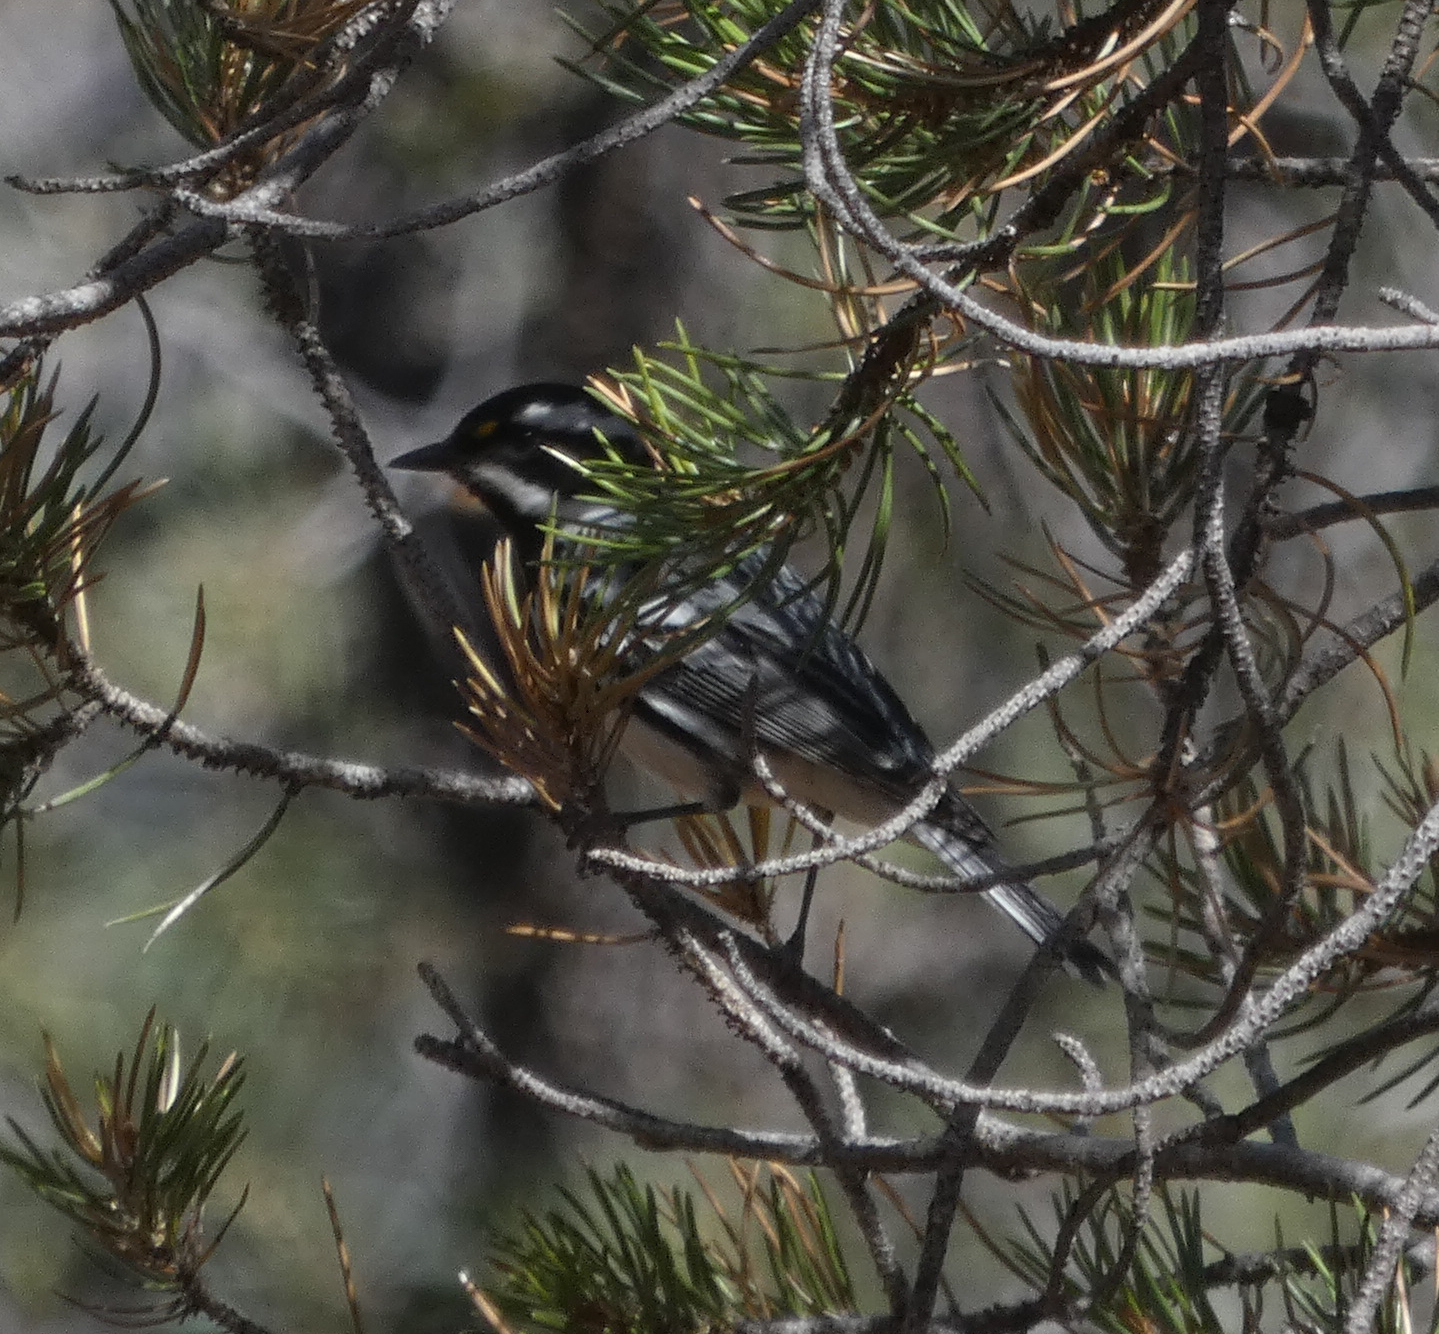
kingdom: Animalia
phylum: Chordata
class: Aves
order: Passeriformes
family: Parulidae
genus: Setophaga
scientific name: Setophaga nigrescens
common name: Black-throated gray warbler
